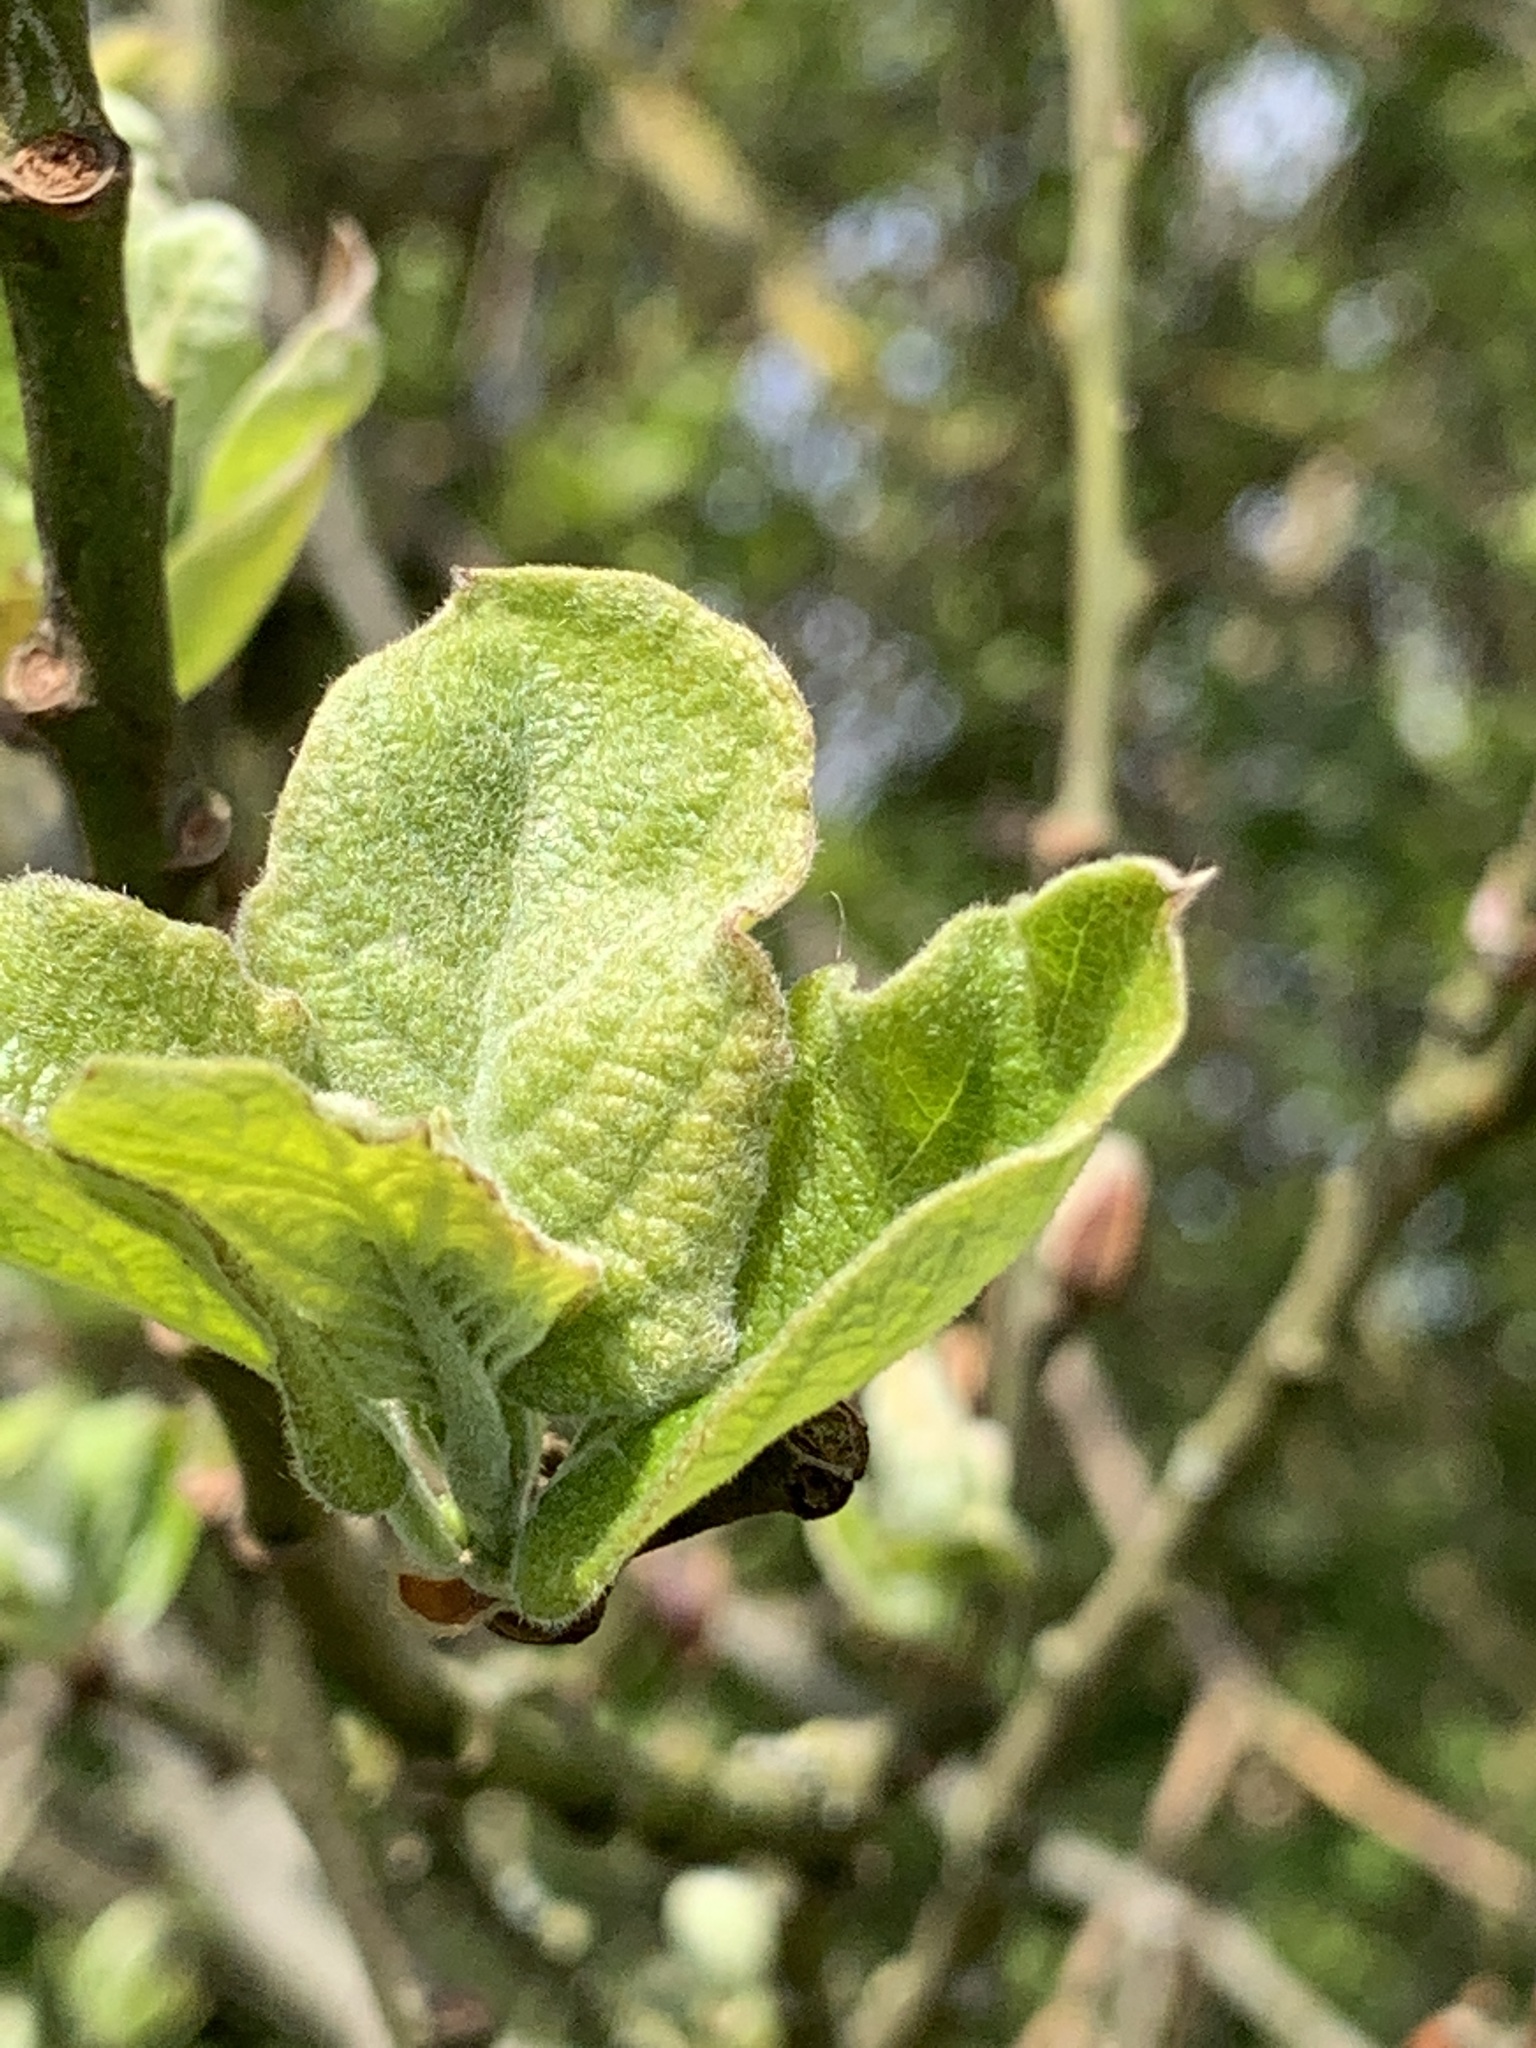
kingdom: Plantae
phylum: Tracheophyta
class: Magnoliopsida
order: Malpighiales
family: Salicaceae
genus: Salix
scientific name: Salix caprea
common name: Goat willow
